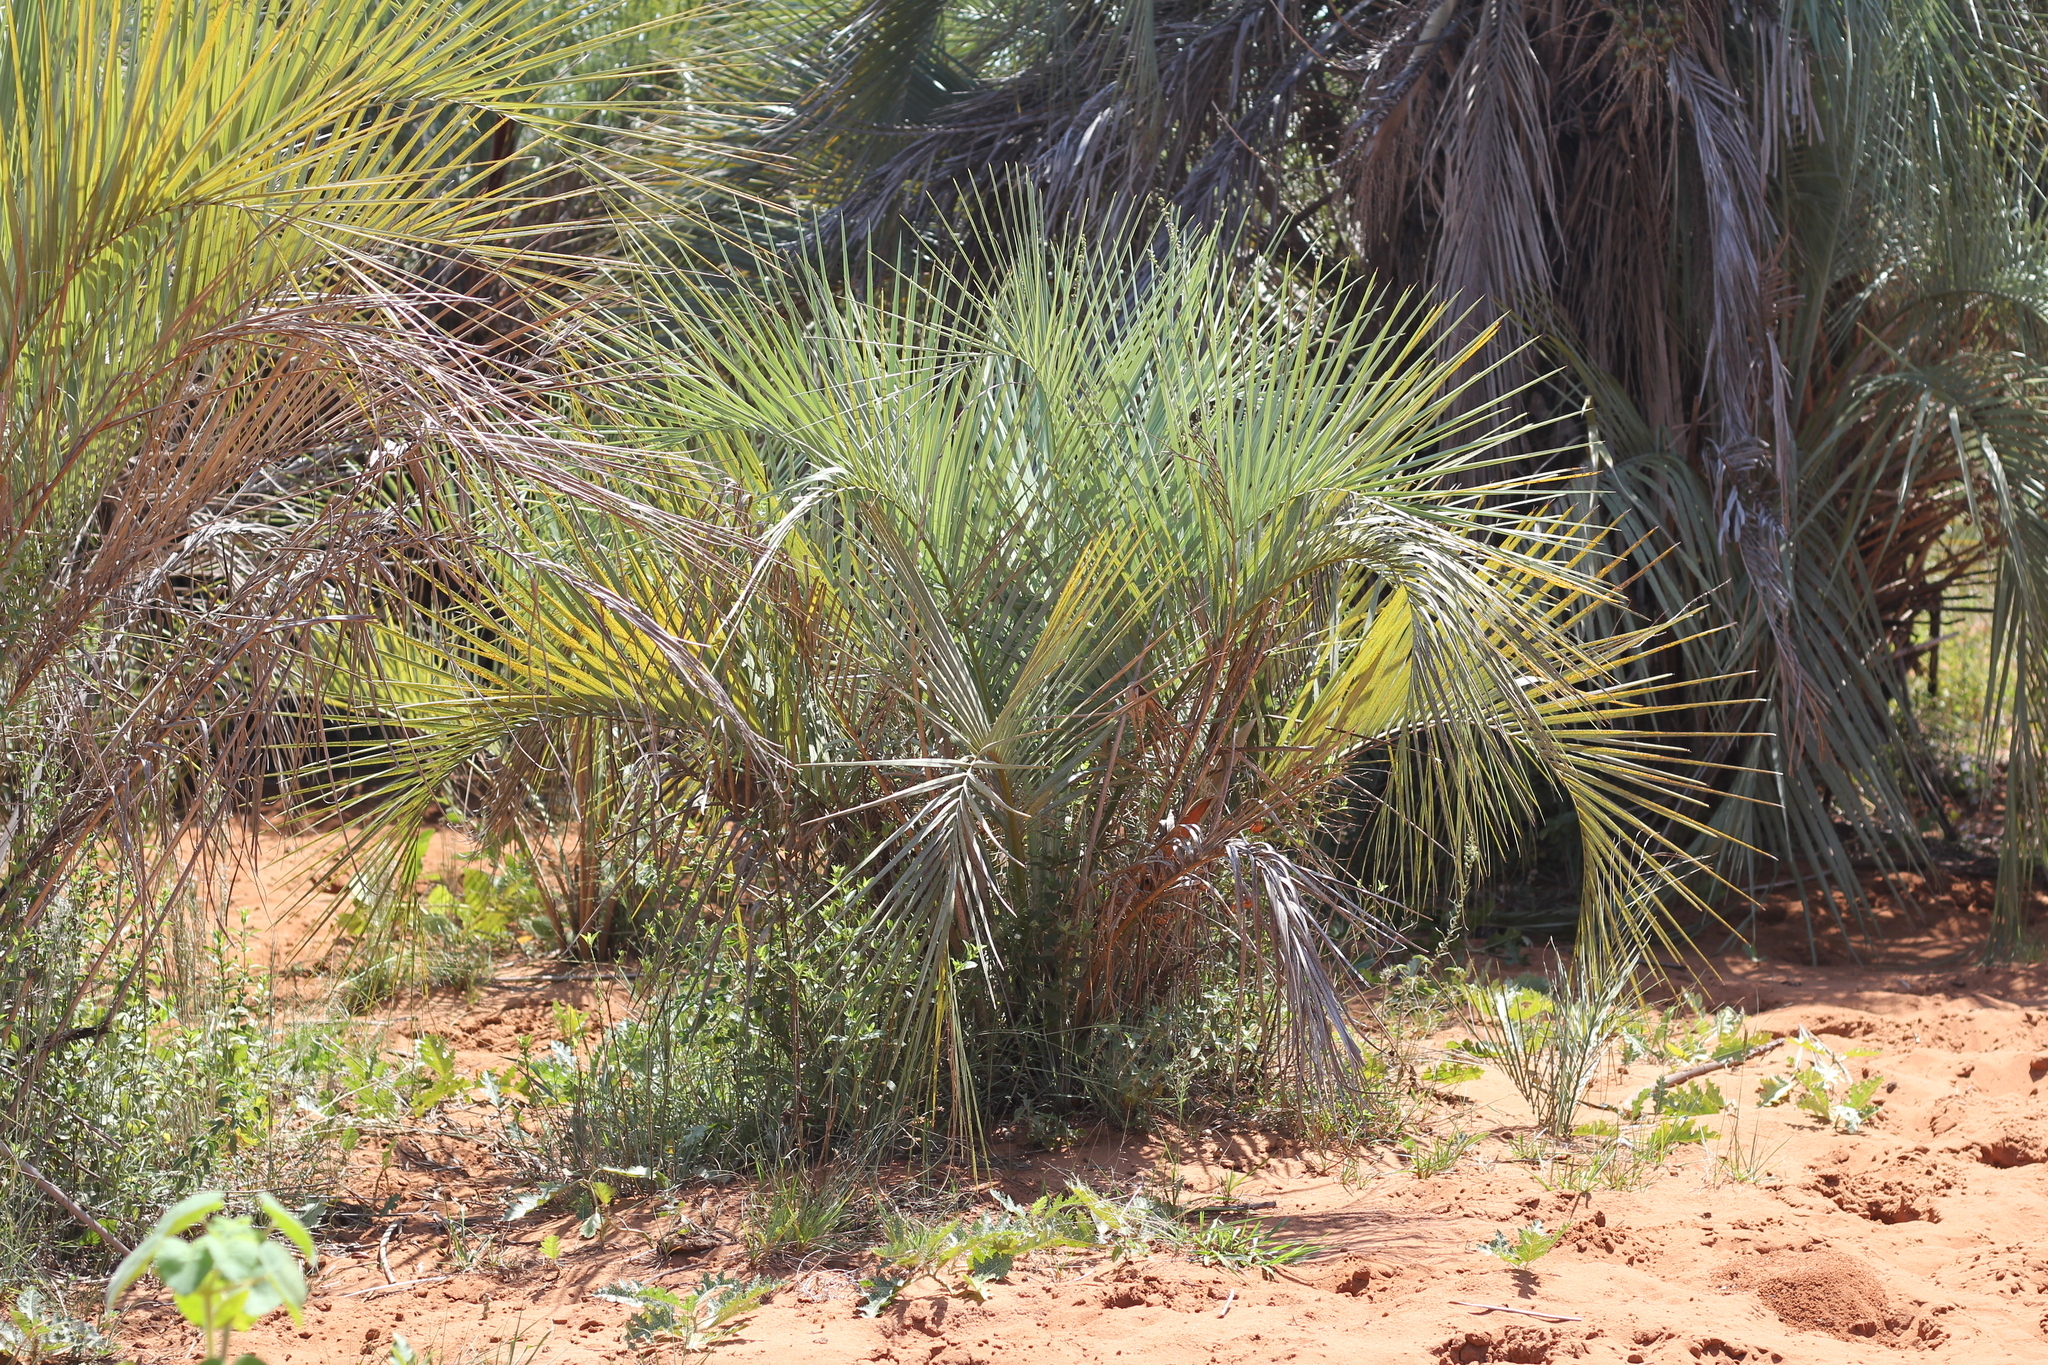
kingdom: Plantae
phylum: Tracheophyta
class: Liliopsida
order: Arecales
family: Arecaceae
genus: Butia
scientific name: Butia noblickii
